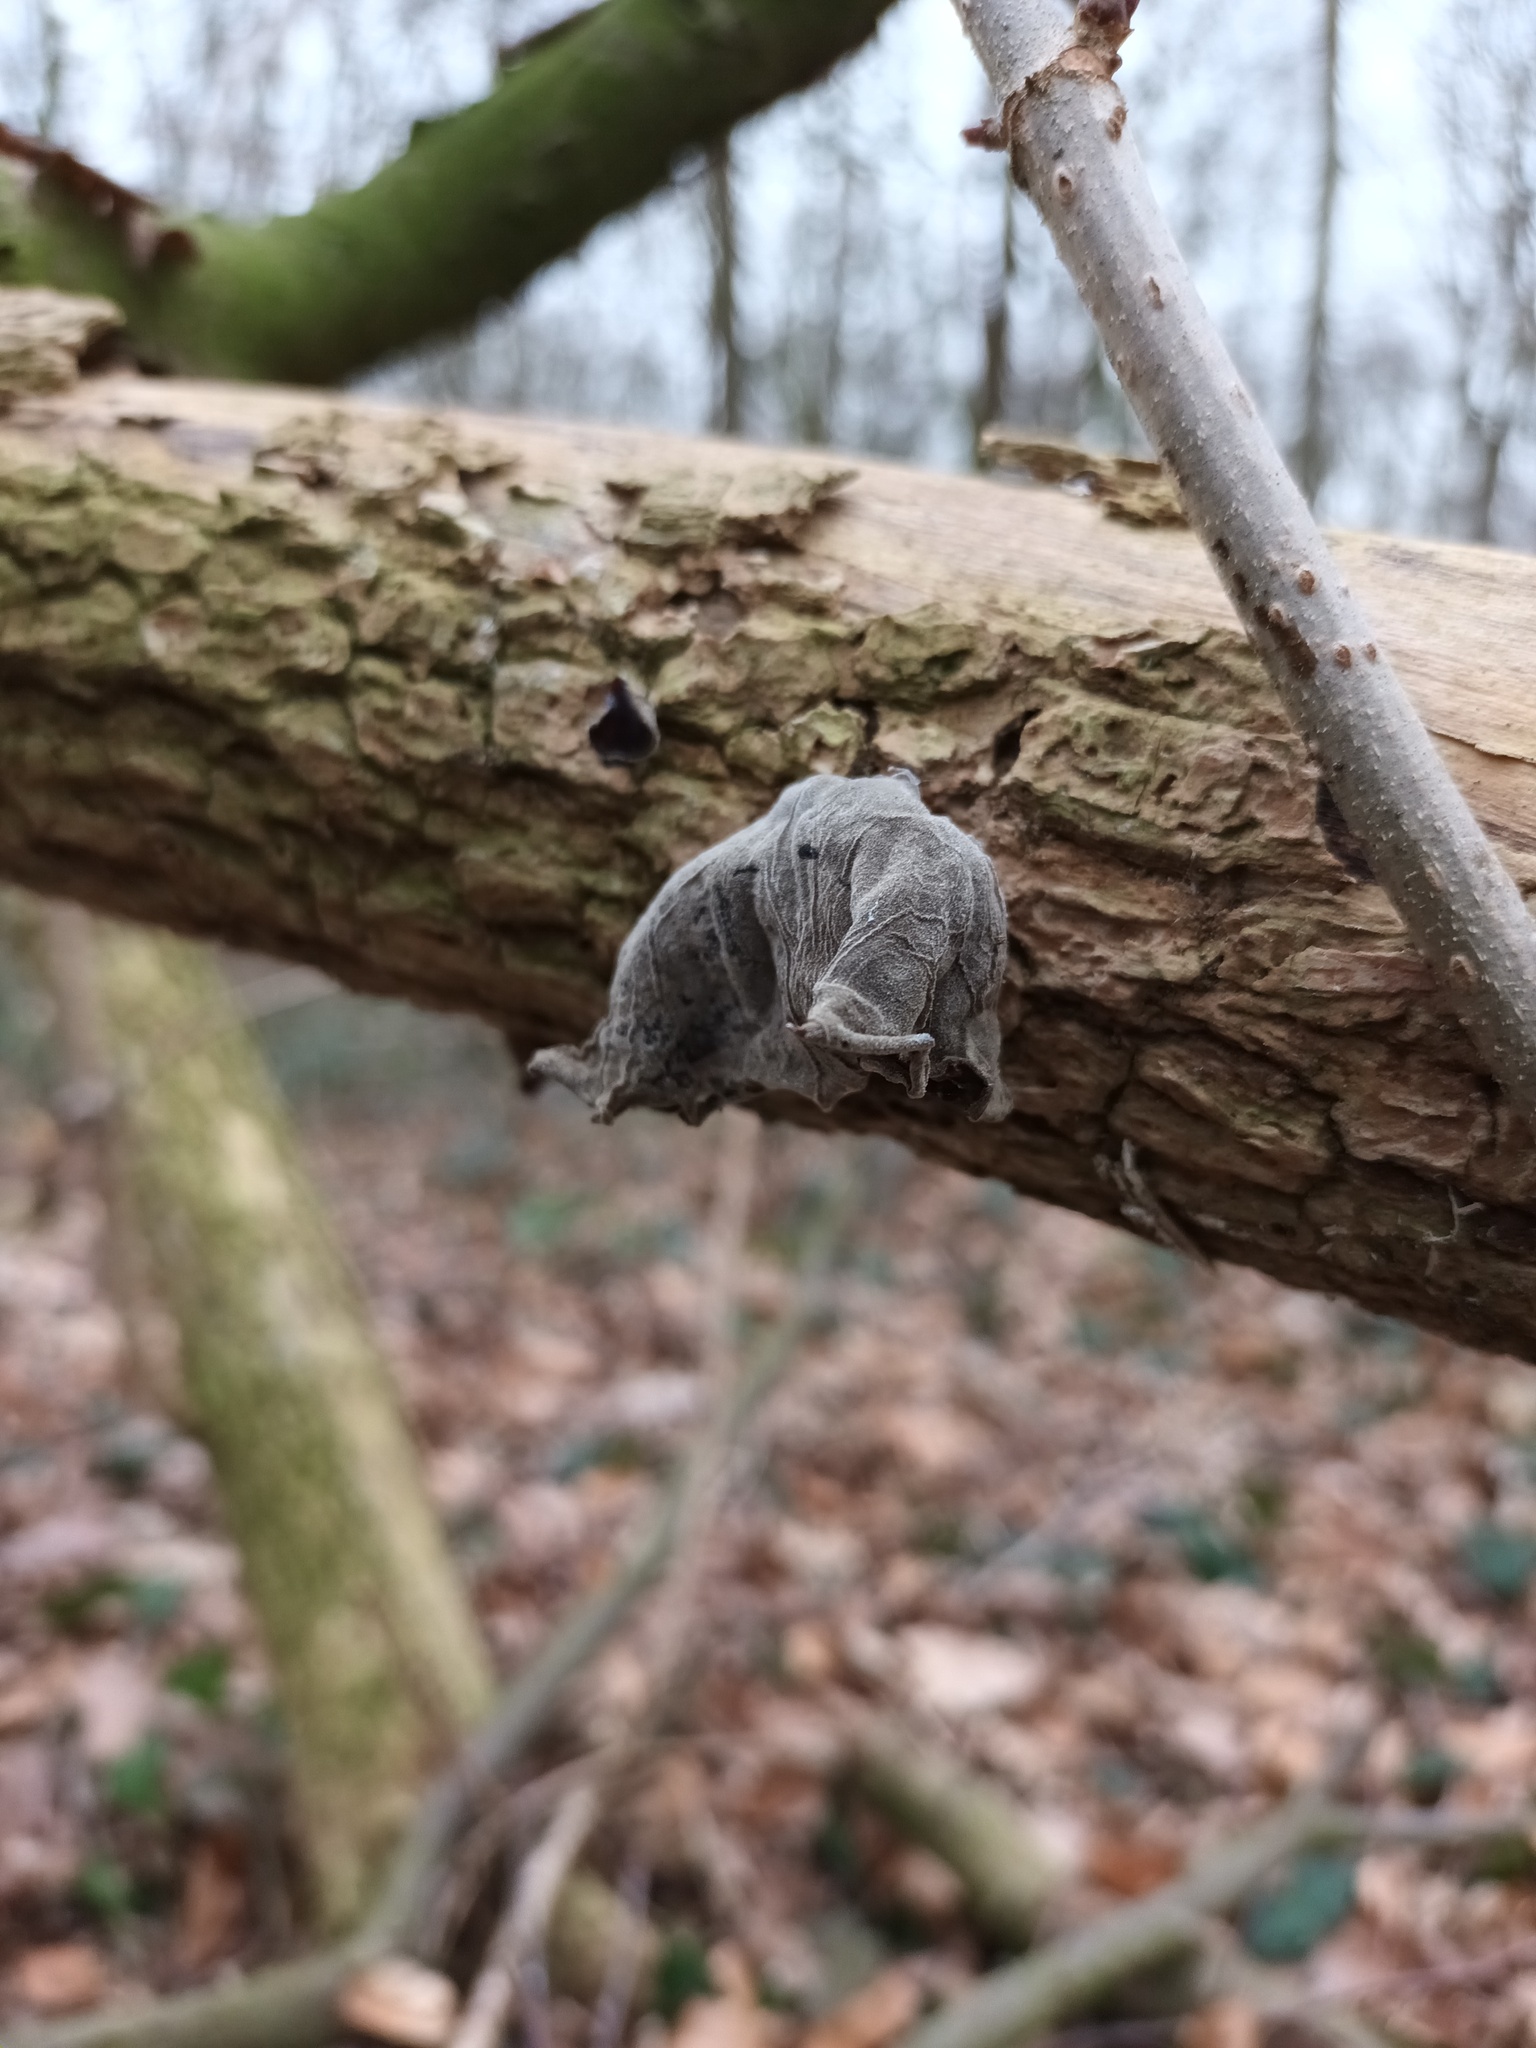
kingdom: Fungi
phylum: Basidiomycota
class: Agaricomycetes
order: Auriculariales
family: Auriculariaceae
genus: Auricularia
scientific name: Auricularia auricula-judae
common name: Jelly ear
